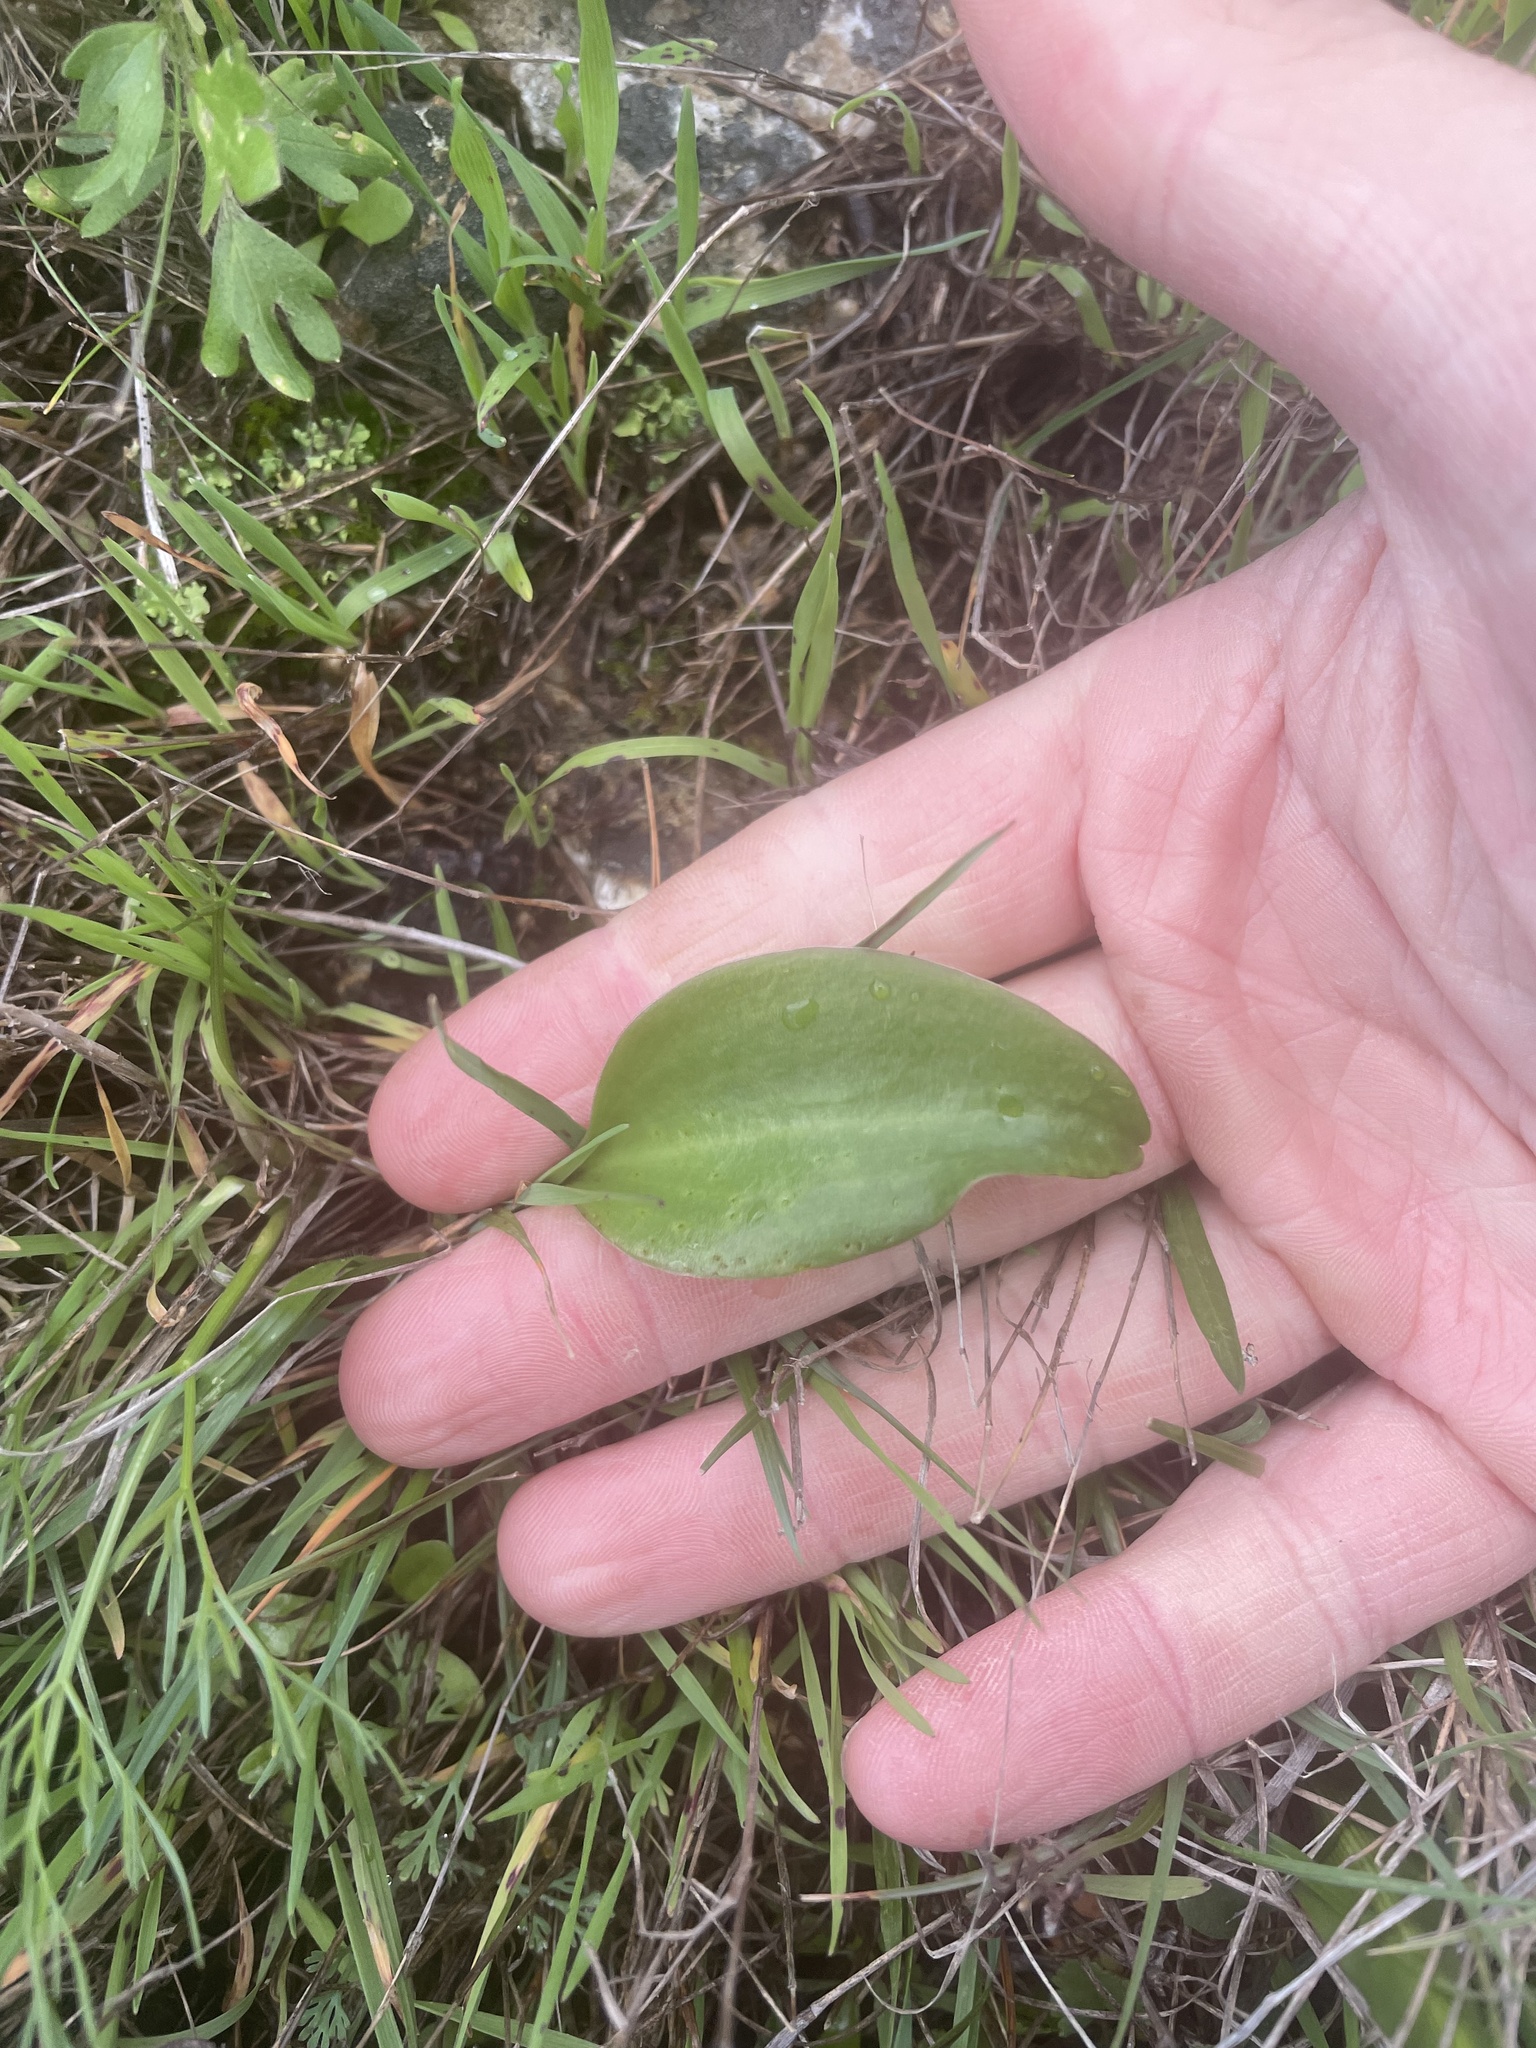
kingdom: Plantae
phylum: Tracheophyta
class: Liliopsida
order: Liliales
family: Liliaceae
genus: Fritillaria
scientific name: Fritillaria affinis
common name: Ojai fritillary
